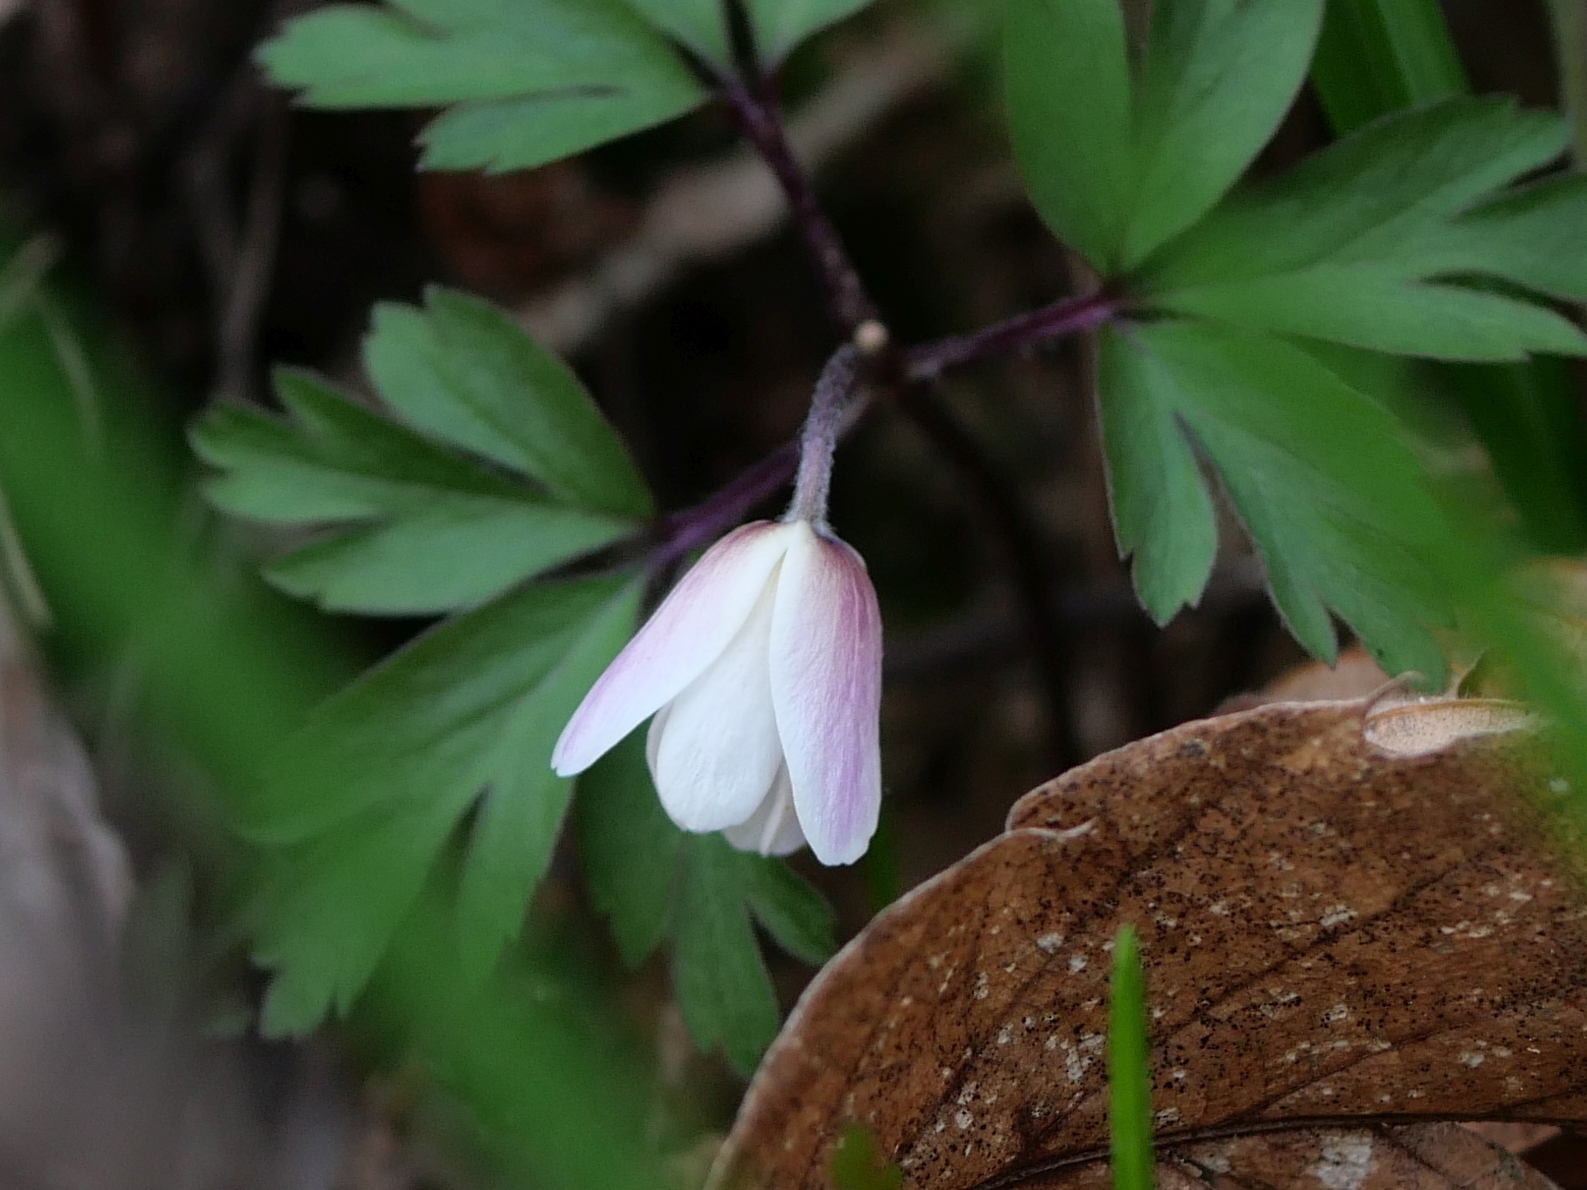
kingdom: Plantae
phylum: Tracheophyta
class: Magnoliopsida
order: Ranunculales
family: Ranunculaceae
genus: Anemone
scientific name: Anemone nemorosa
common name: Wood anemone
